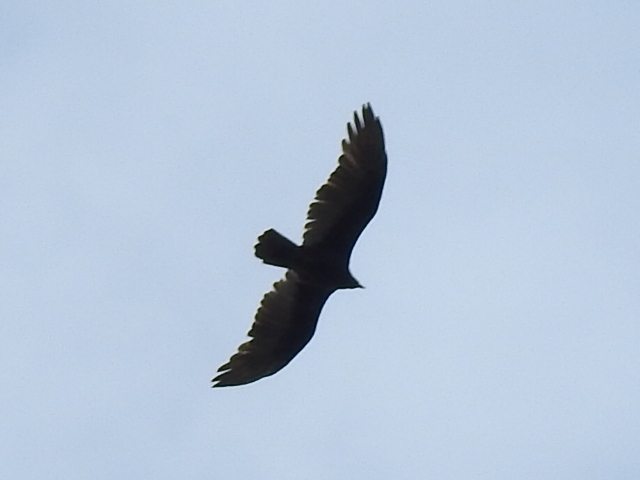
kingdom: Animalia
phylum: Chordata
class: Aves
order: Accipitriformes
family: Cathartidae
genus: Cathartes
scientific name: Cathartes aura
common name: Turkey vulture
